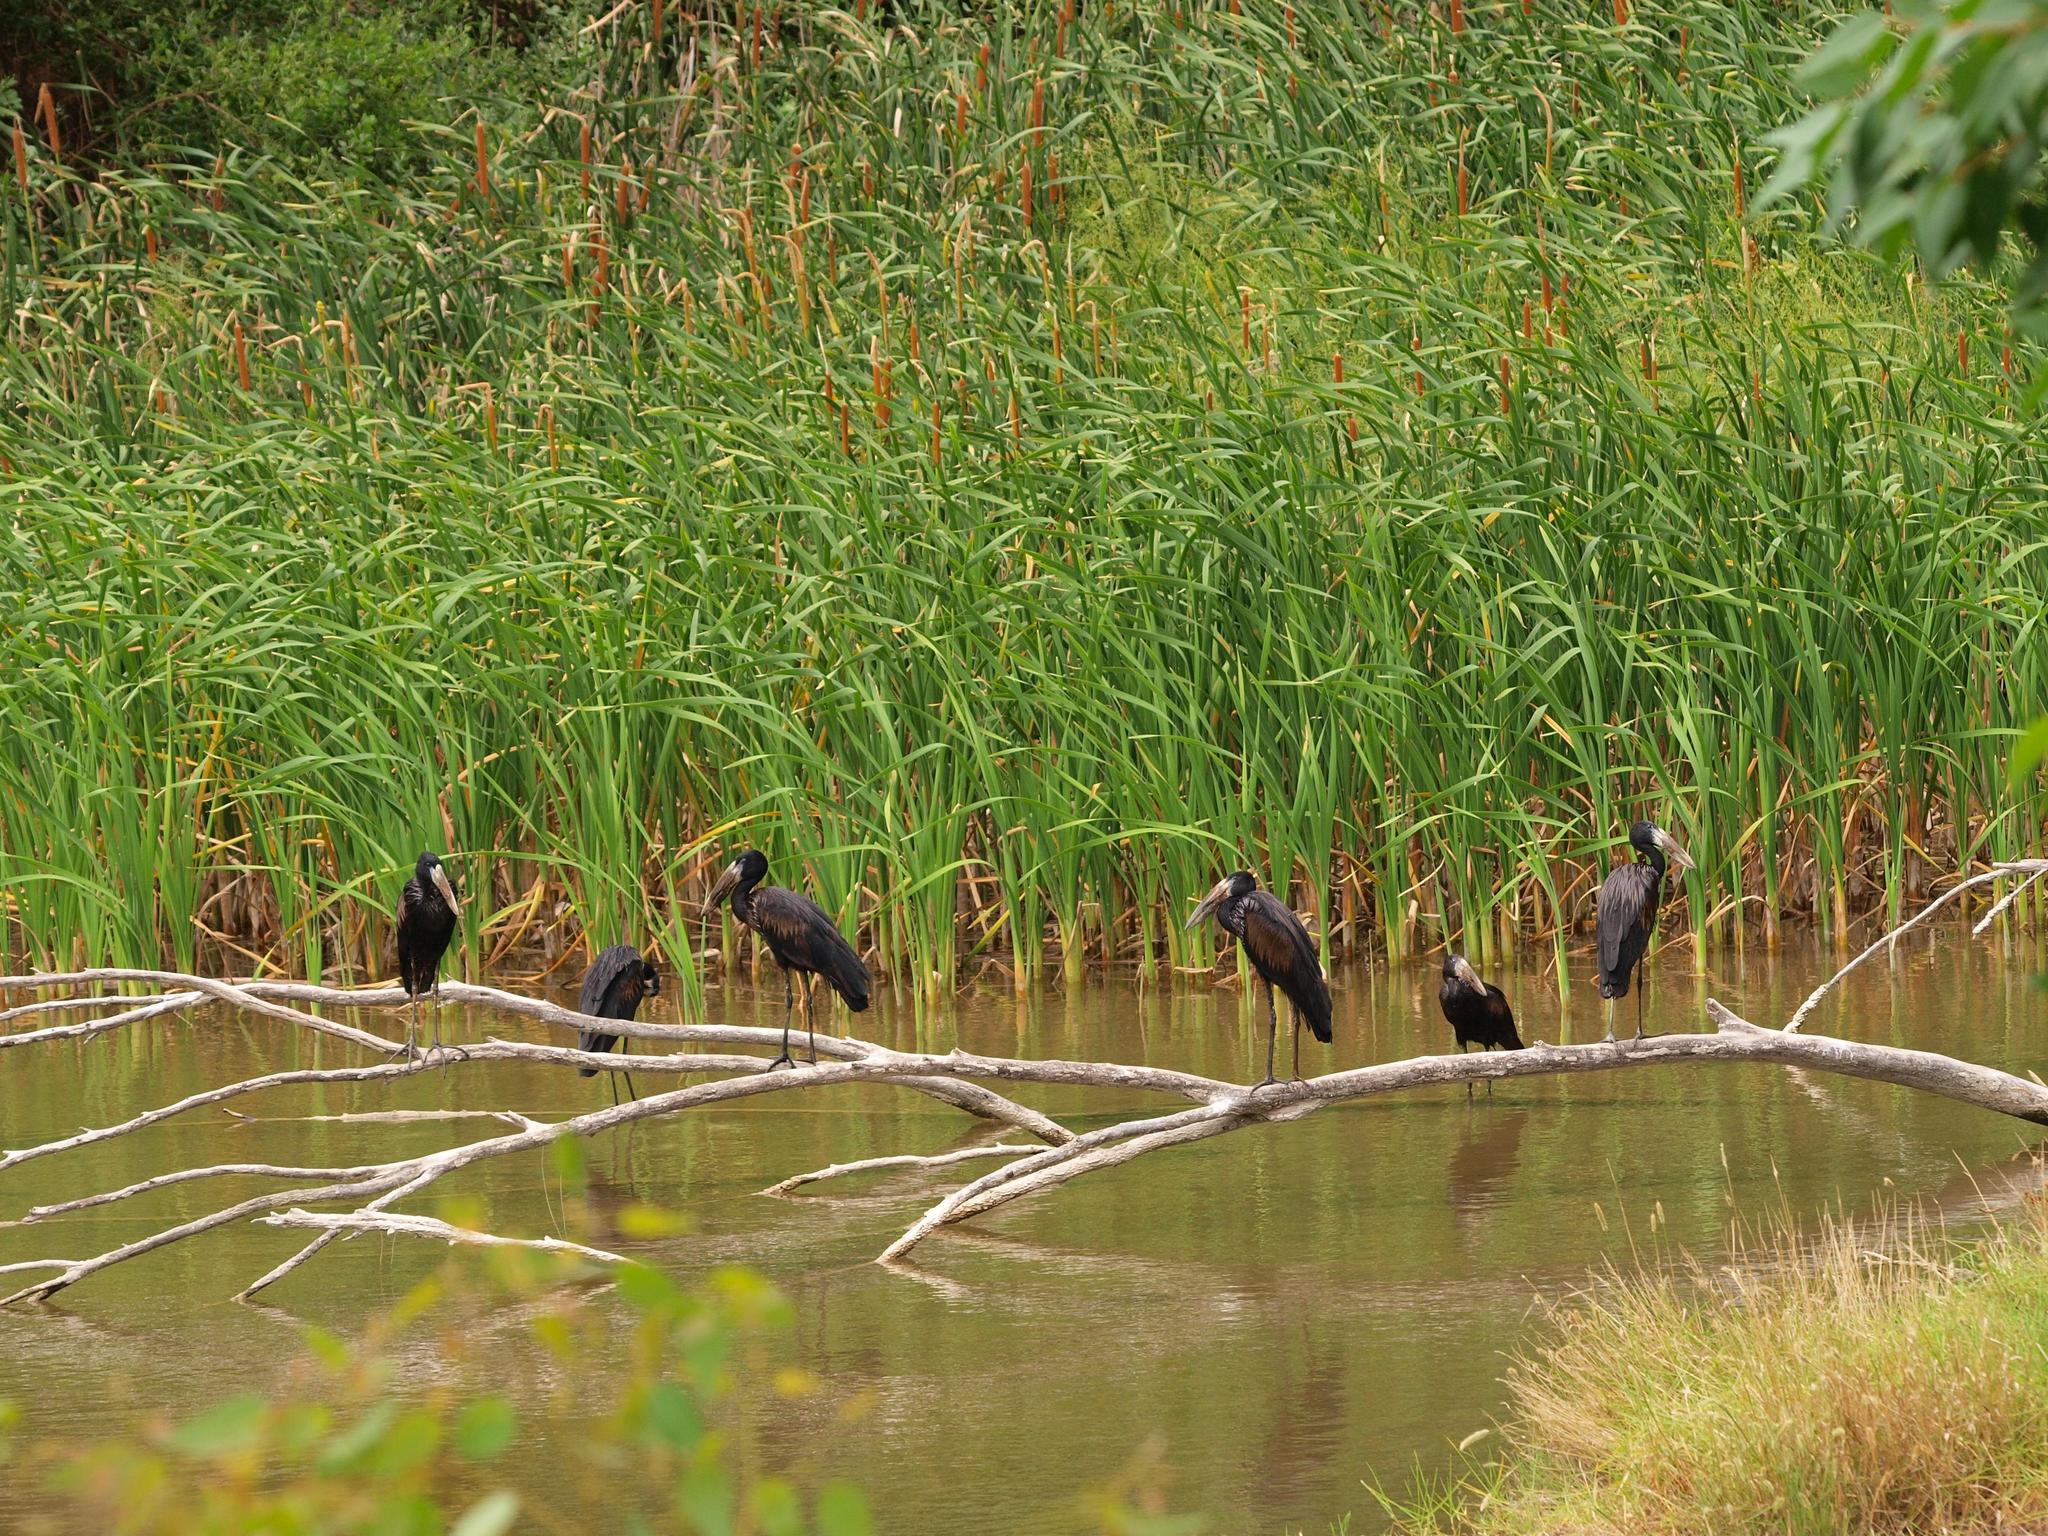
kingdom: Animalia
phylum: Chordata
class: Aves
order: Ciconiiformes
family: Ciconiidae
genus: Anastomus
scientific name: Anastomus lamelligerus
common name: African openbill
